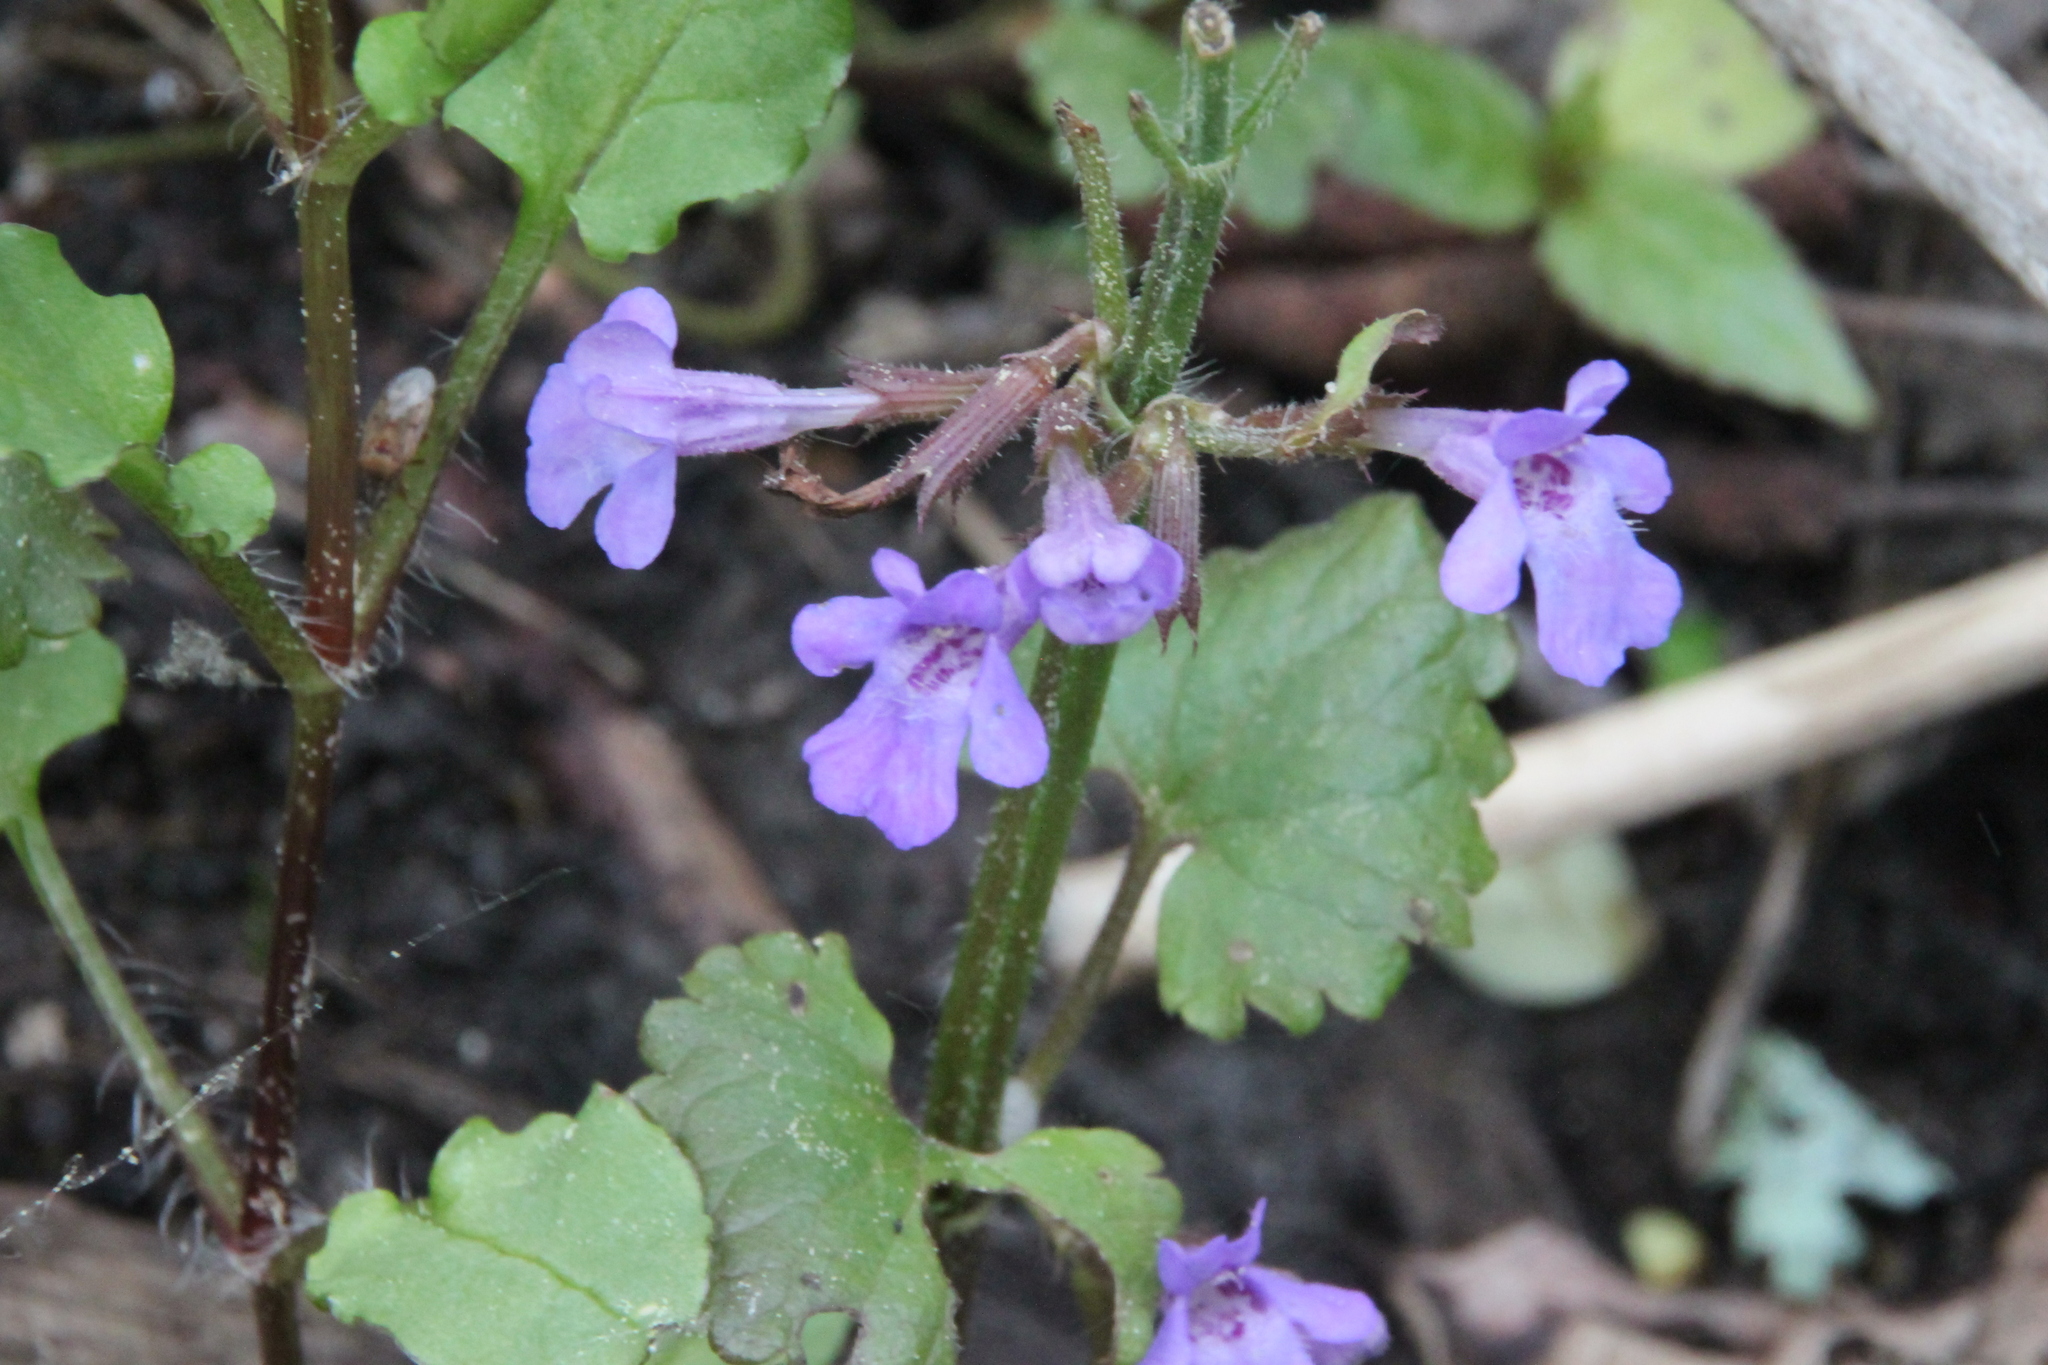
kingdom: Plantae
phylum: Tracheophyta
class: Magnoliopsida
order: Lamiales
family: Lamiaceae
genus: Glechoma
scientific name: Glechoma hederacea
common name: Ground ivy
